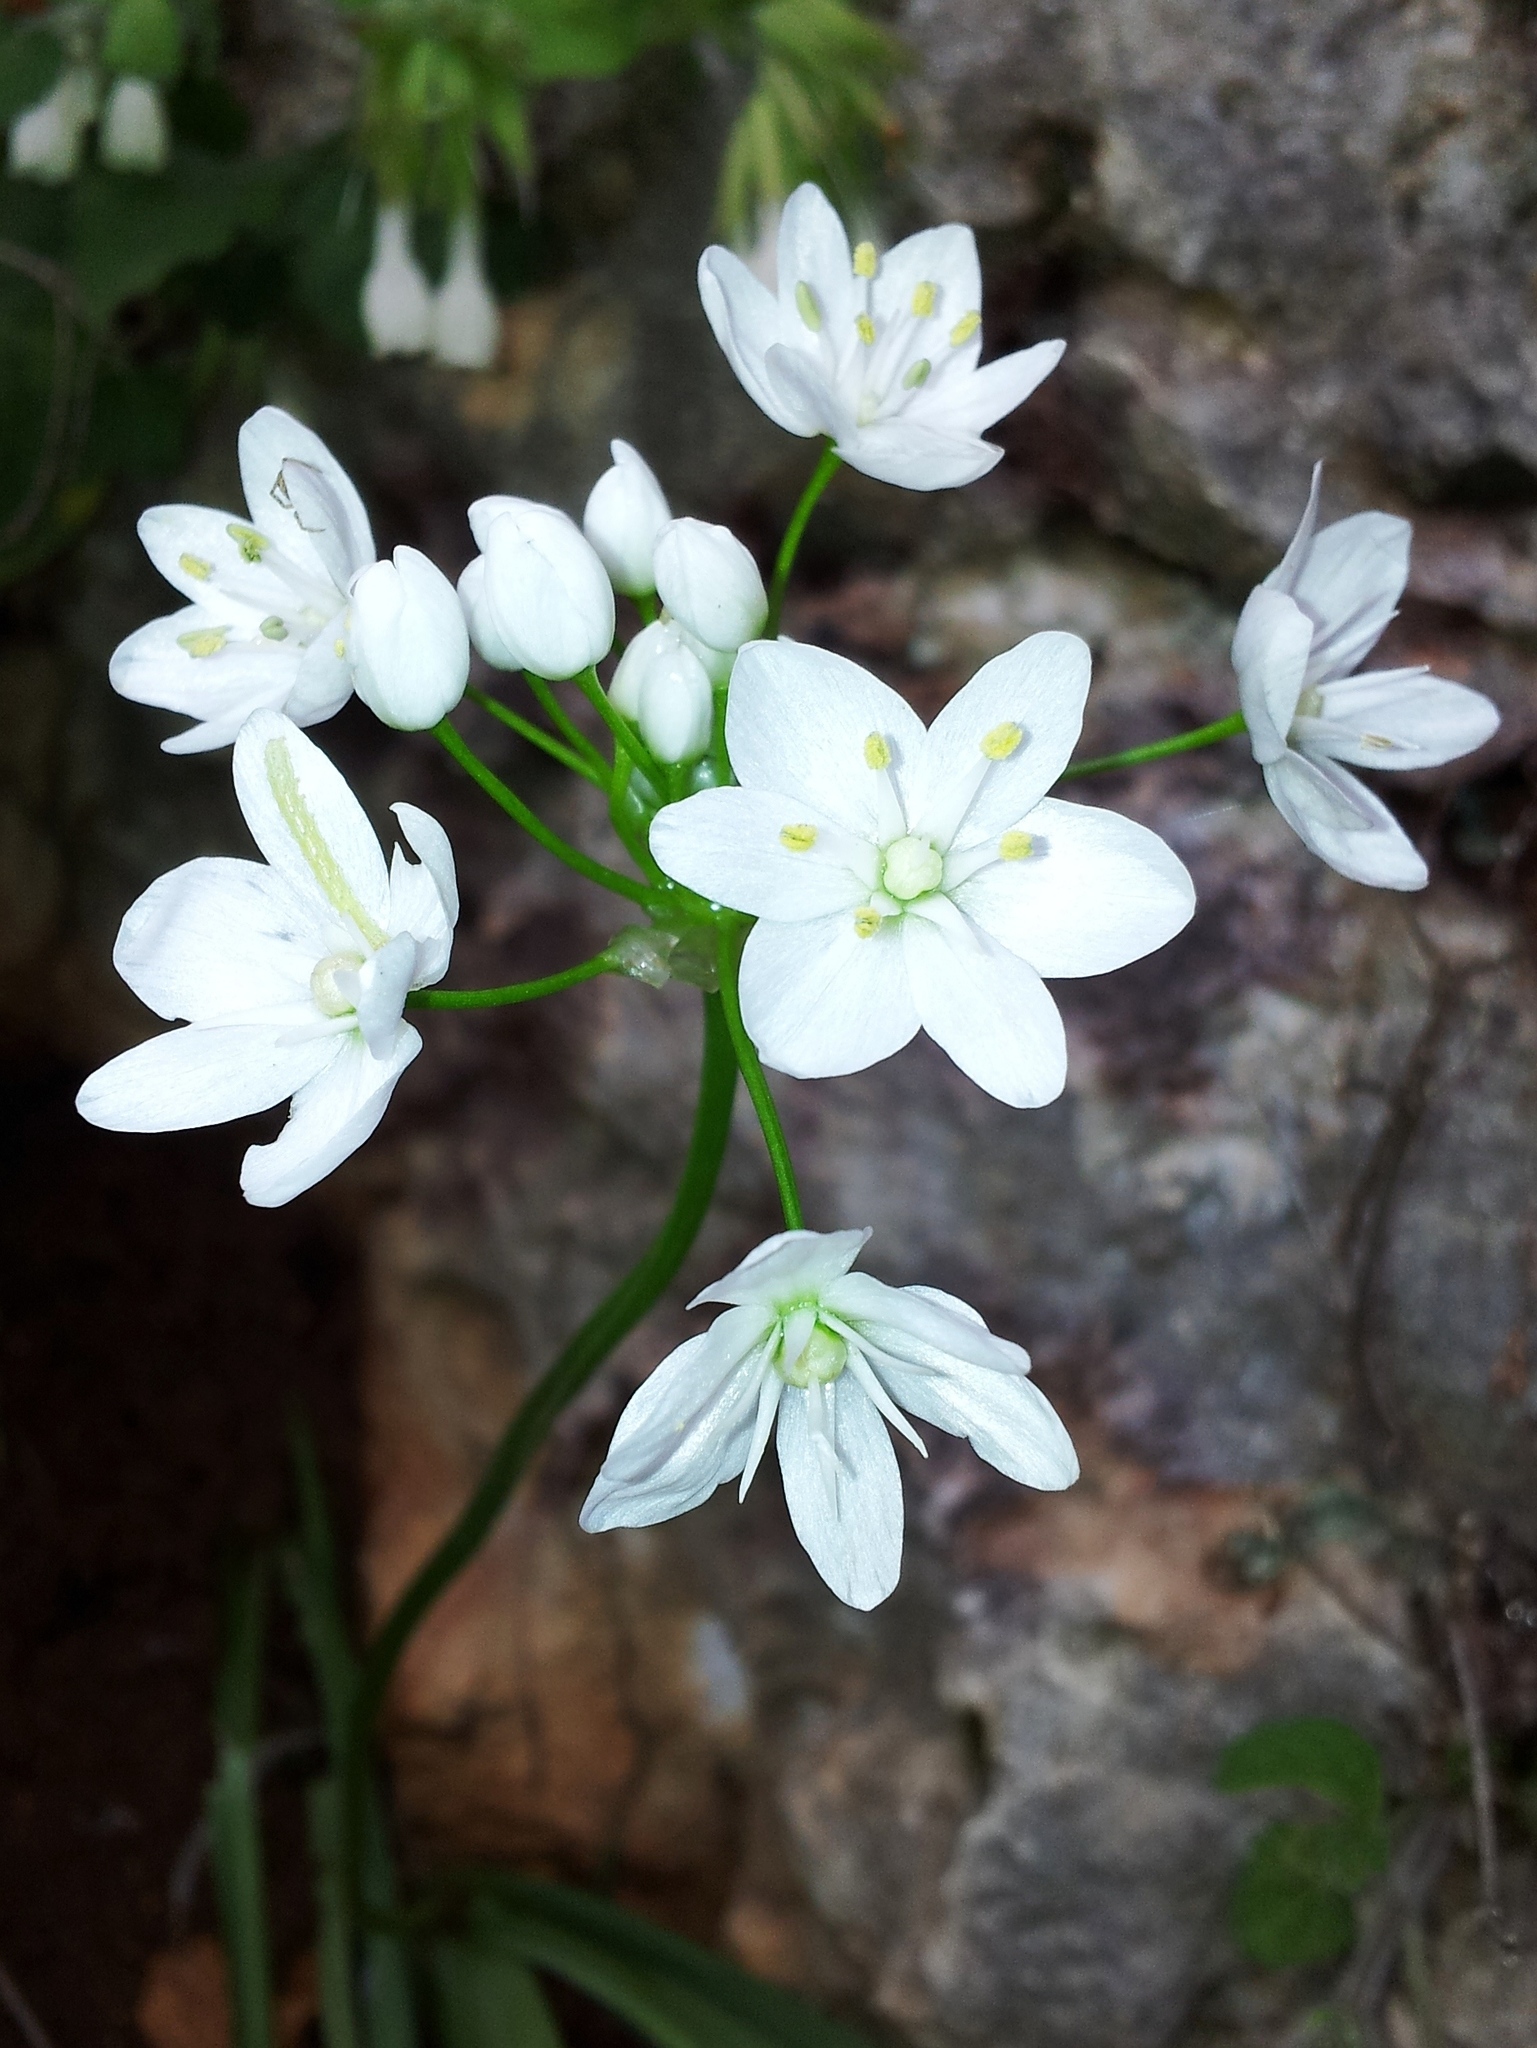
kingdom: Plantae
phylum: Tracheophyta
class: Liliopsida
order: Asparagales
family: Amaryllidaceae
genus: Allium
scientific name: Allium neapolitanum
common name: Neapolitan garlic
